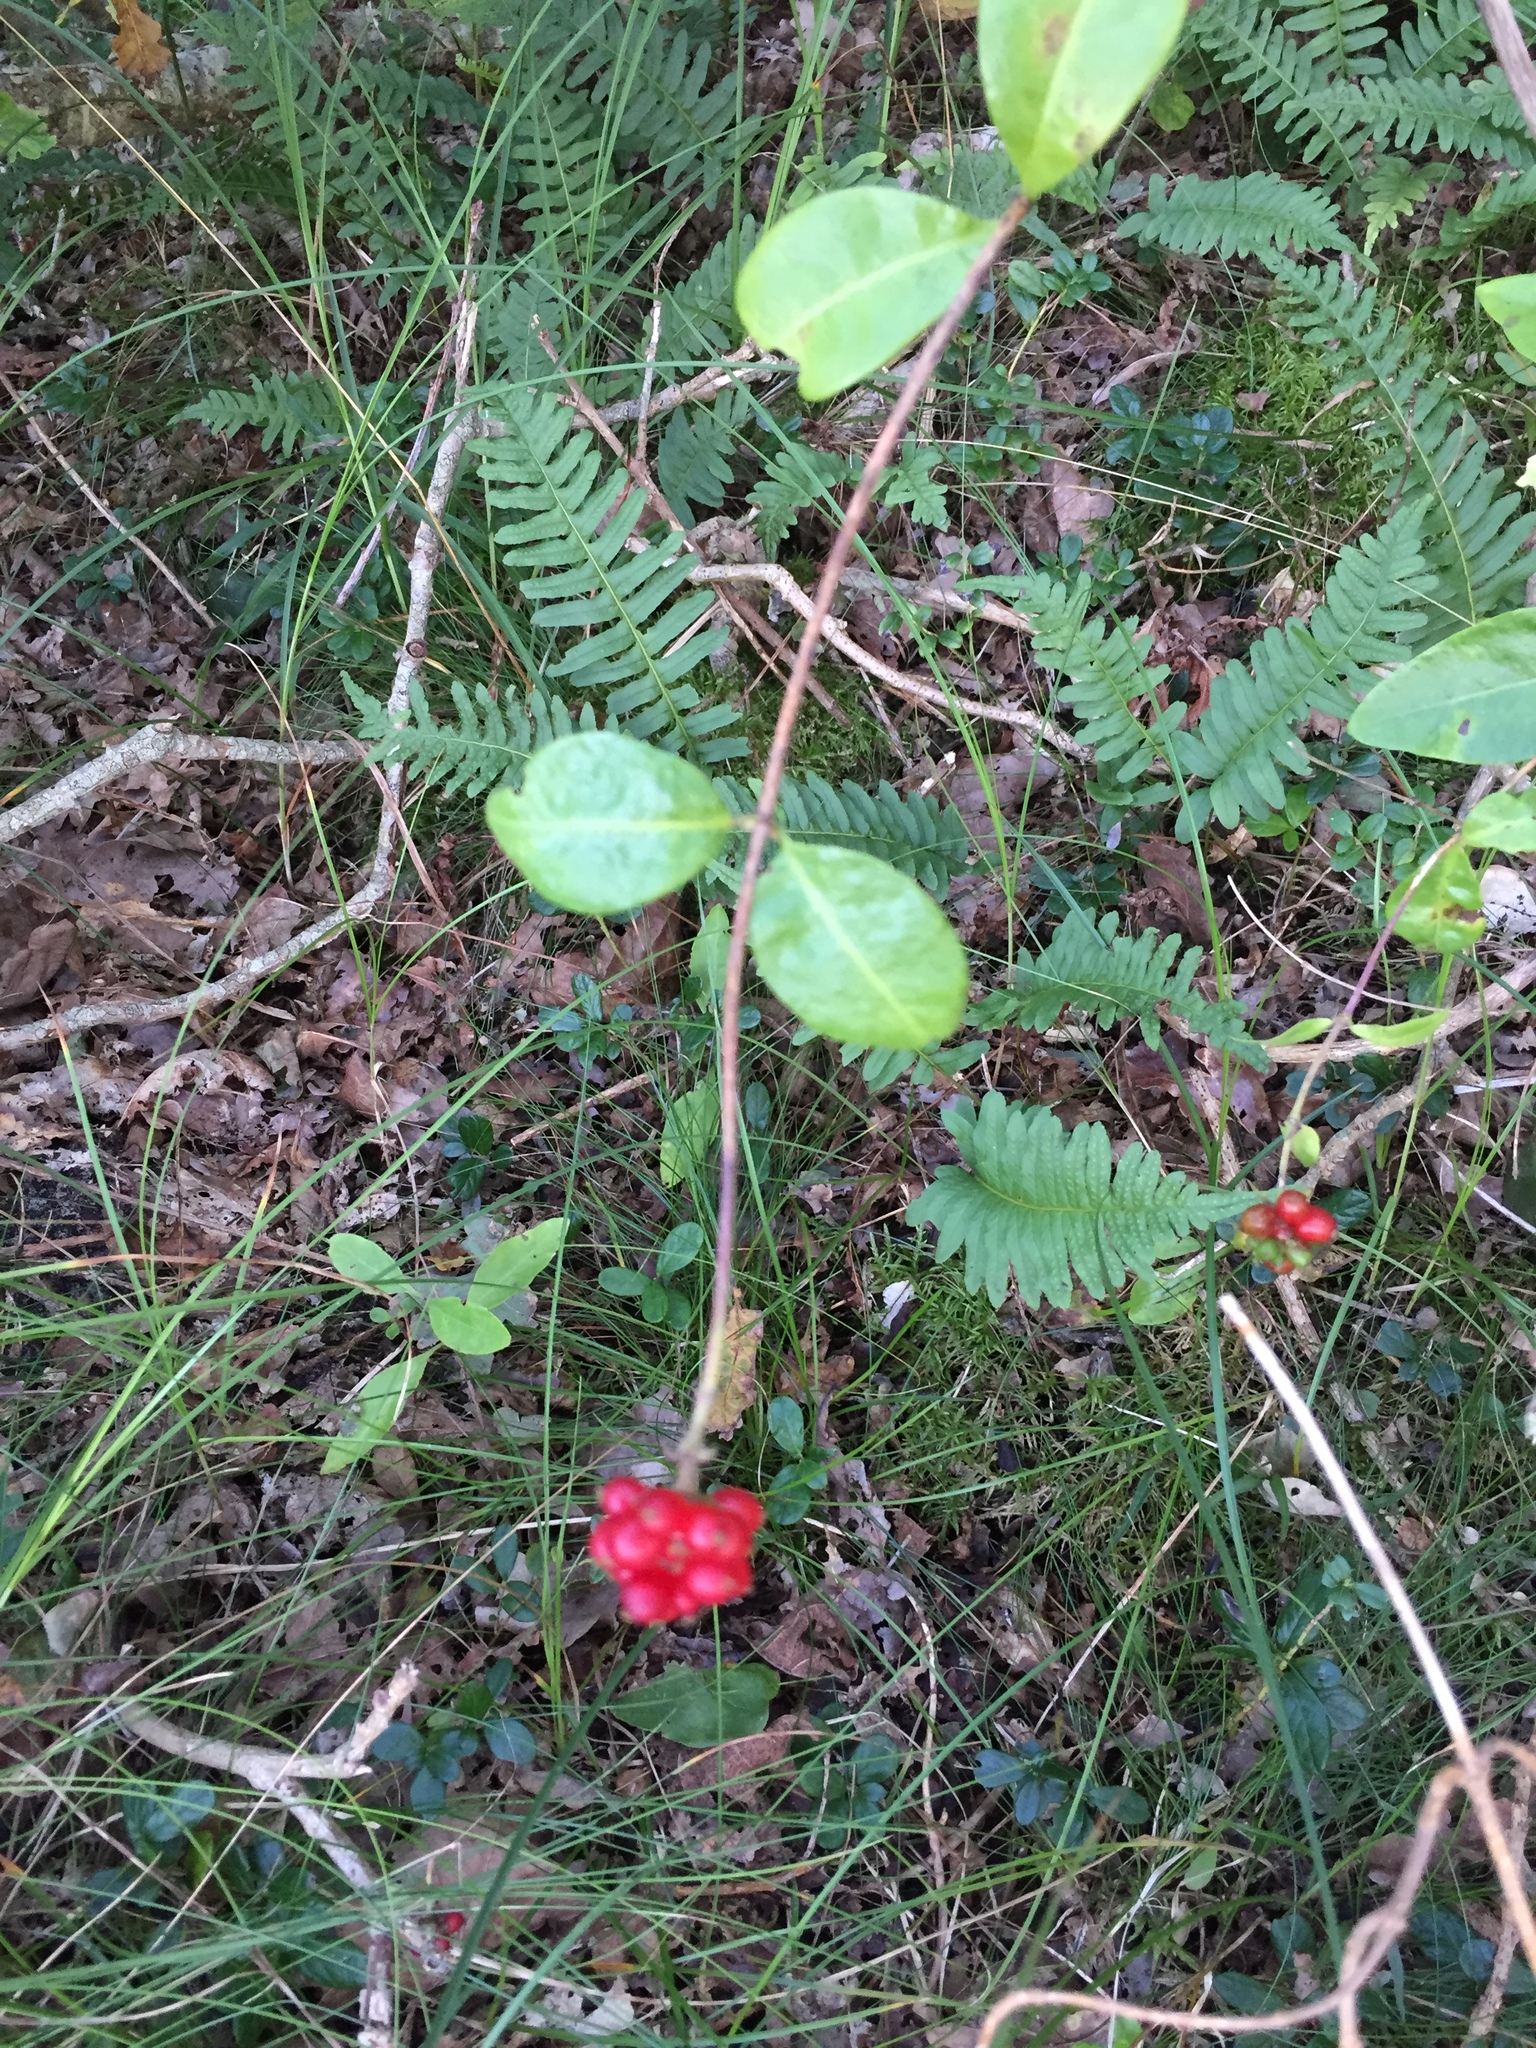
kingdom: Plantae
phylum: Tracheophyta
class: Magnoliopsida
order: Dipsacales
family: Caprifoliaceae
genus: Lonicera
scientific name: Lonicera periclymenum
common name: European honeysuckle
